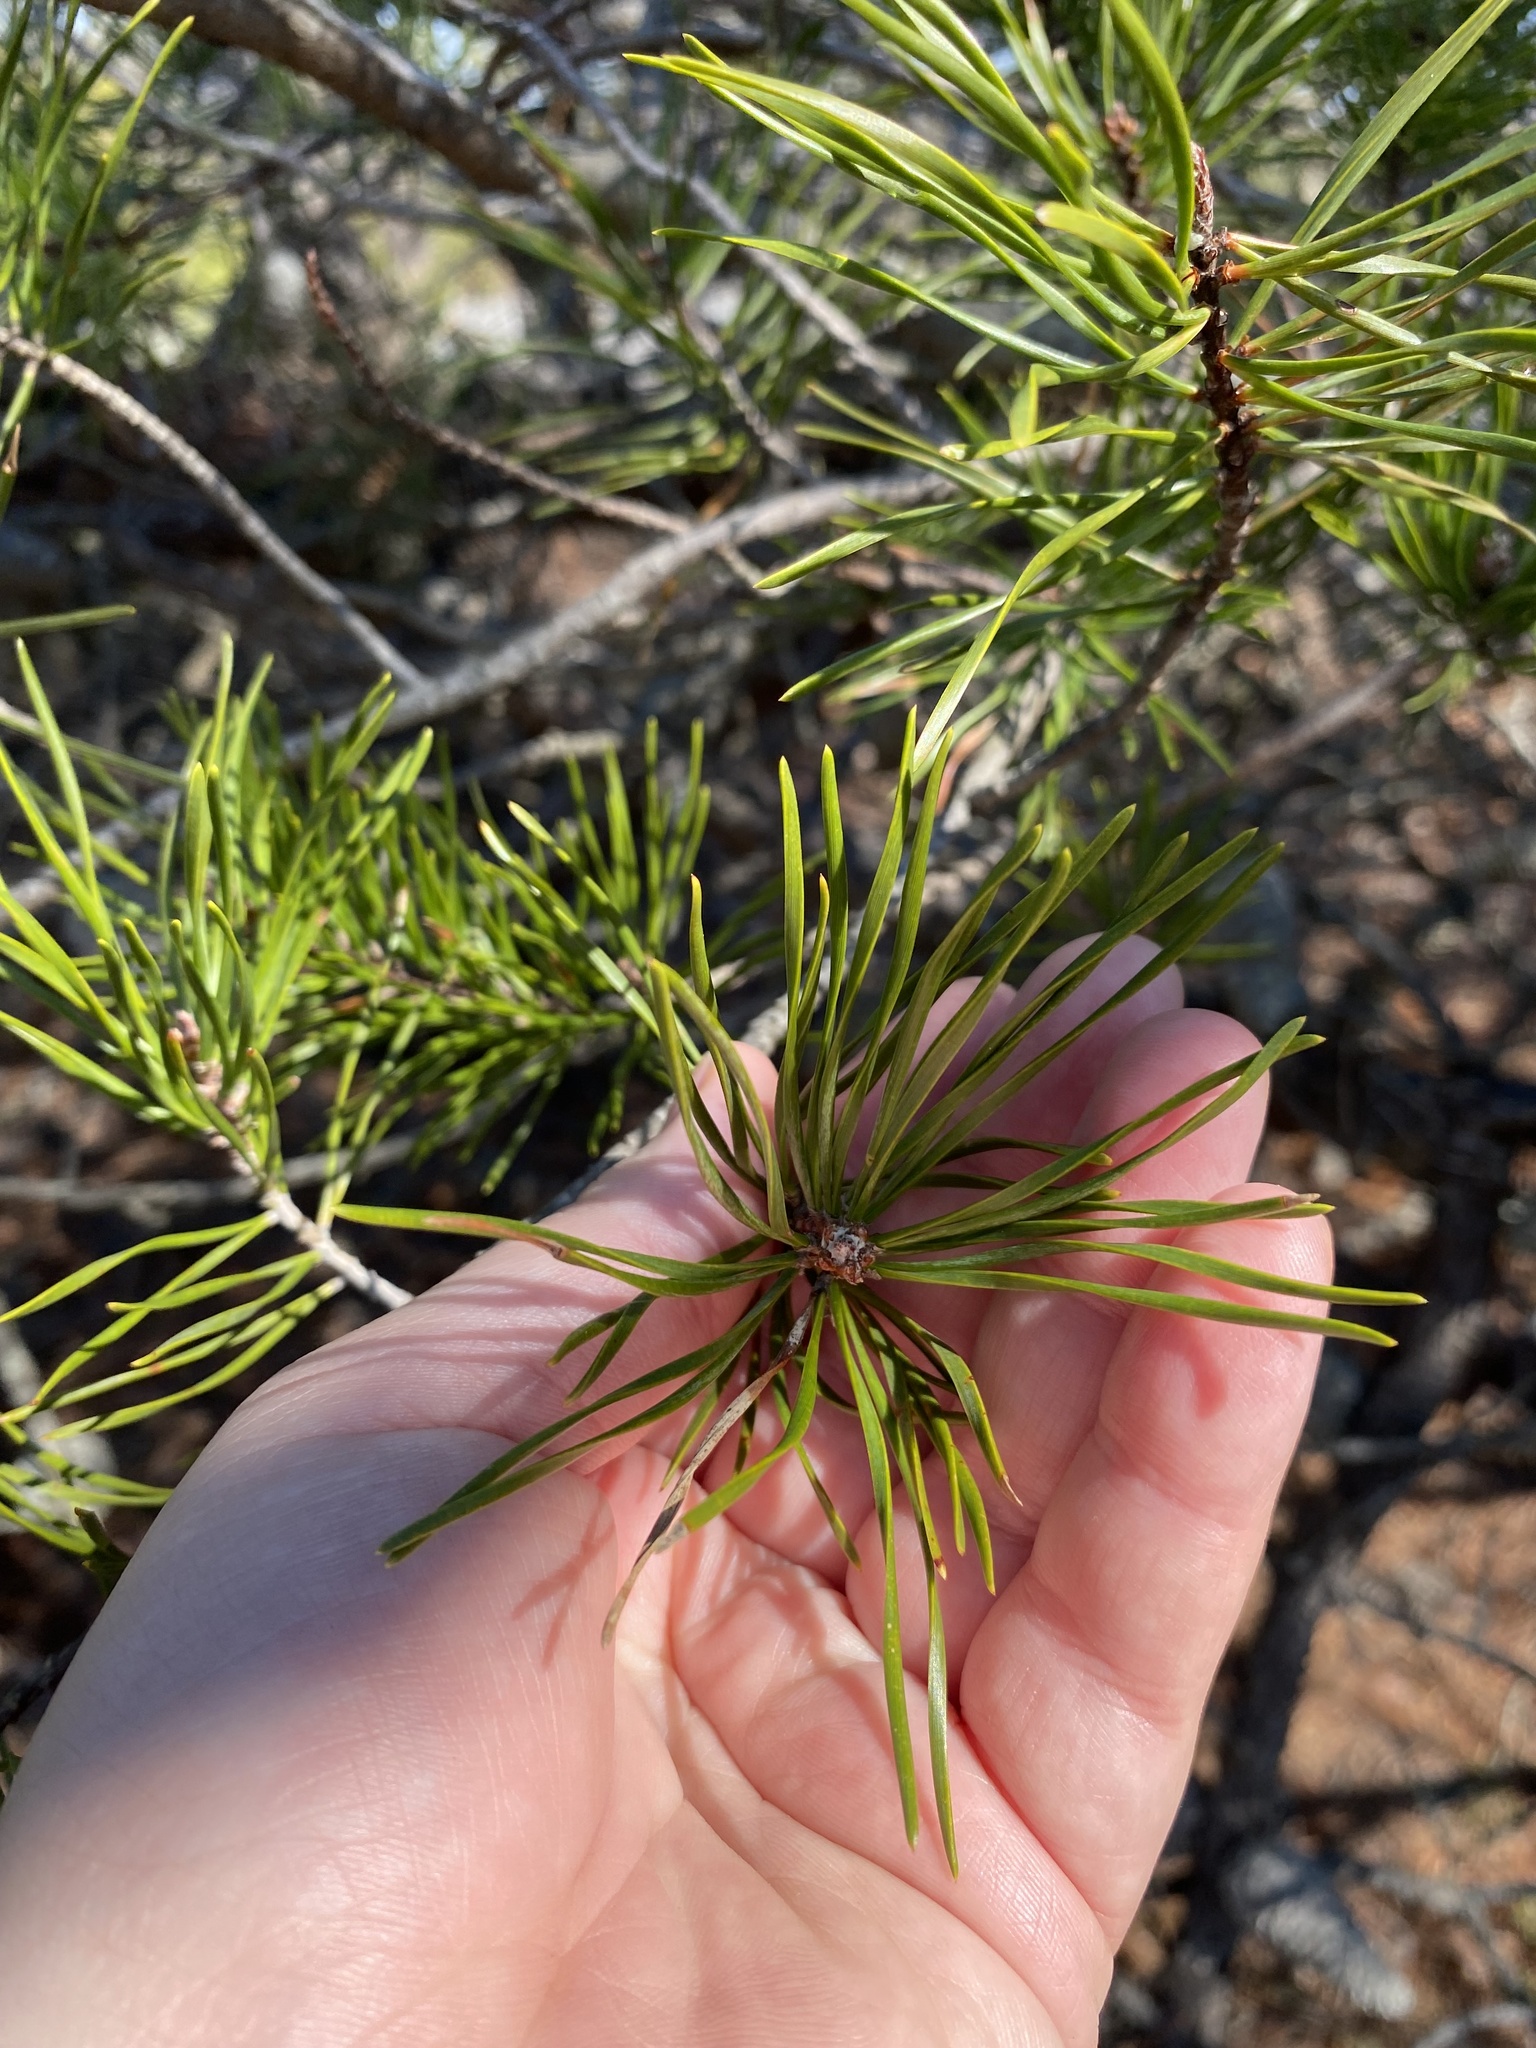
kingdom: Plantae
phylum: Tracheophyta
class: Pinopsida
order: Pinales
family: Pinaceae
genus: Pinus
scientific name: Pinus virginiana
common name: Scrub pine
